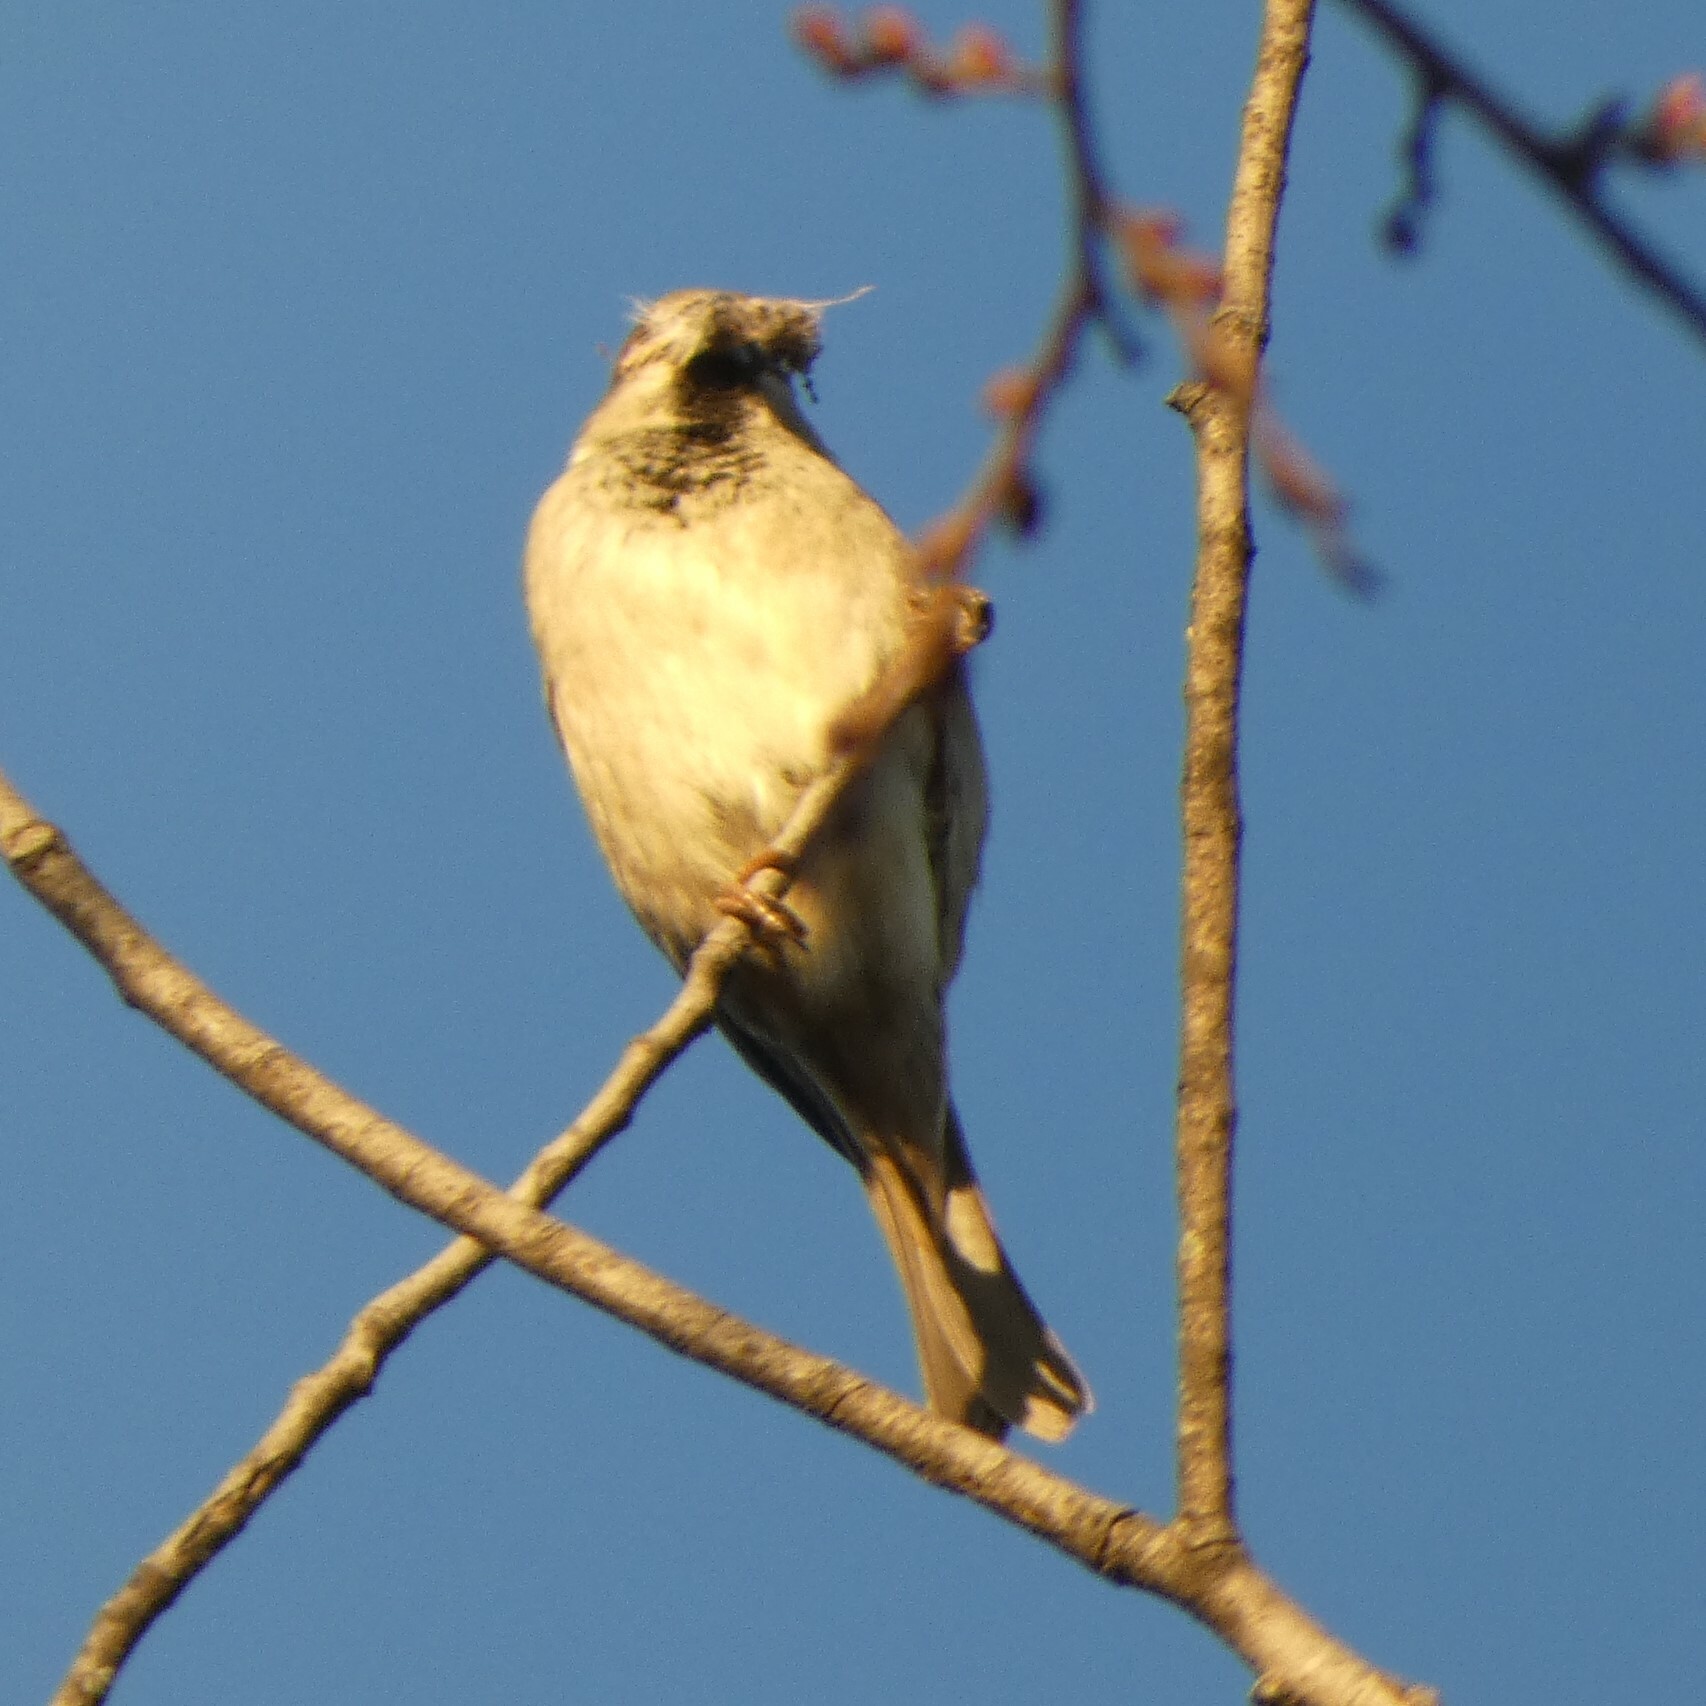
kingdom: Animalia
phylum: Chordata
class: Aves
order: Passeriformes
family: Passeridae
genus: Passer
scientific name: Passer domesticus
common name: House sparrow
